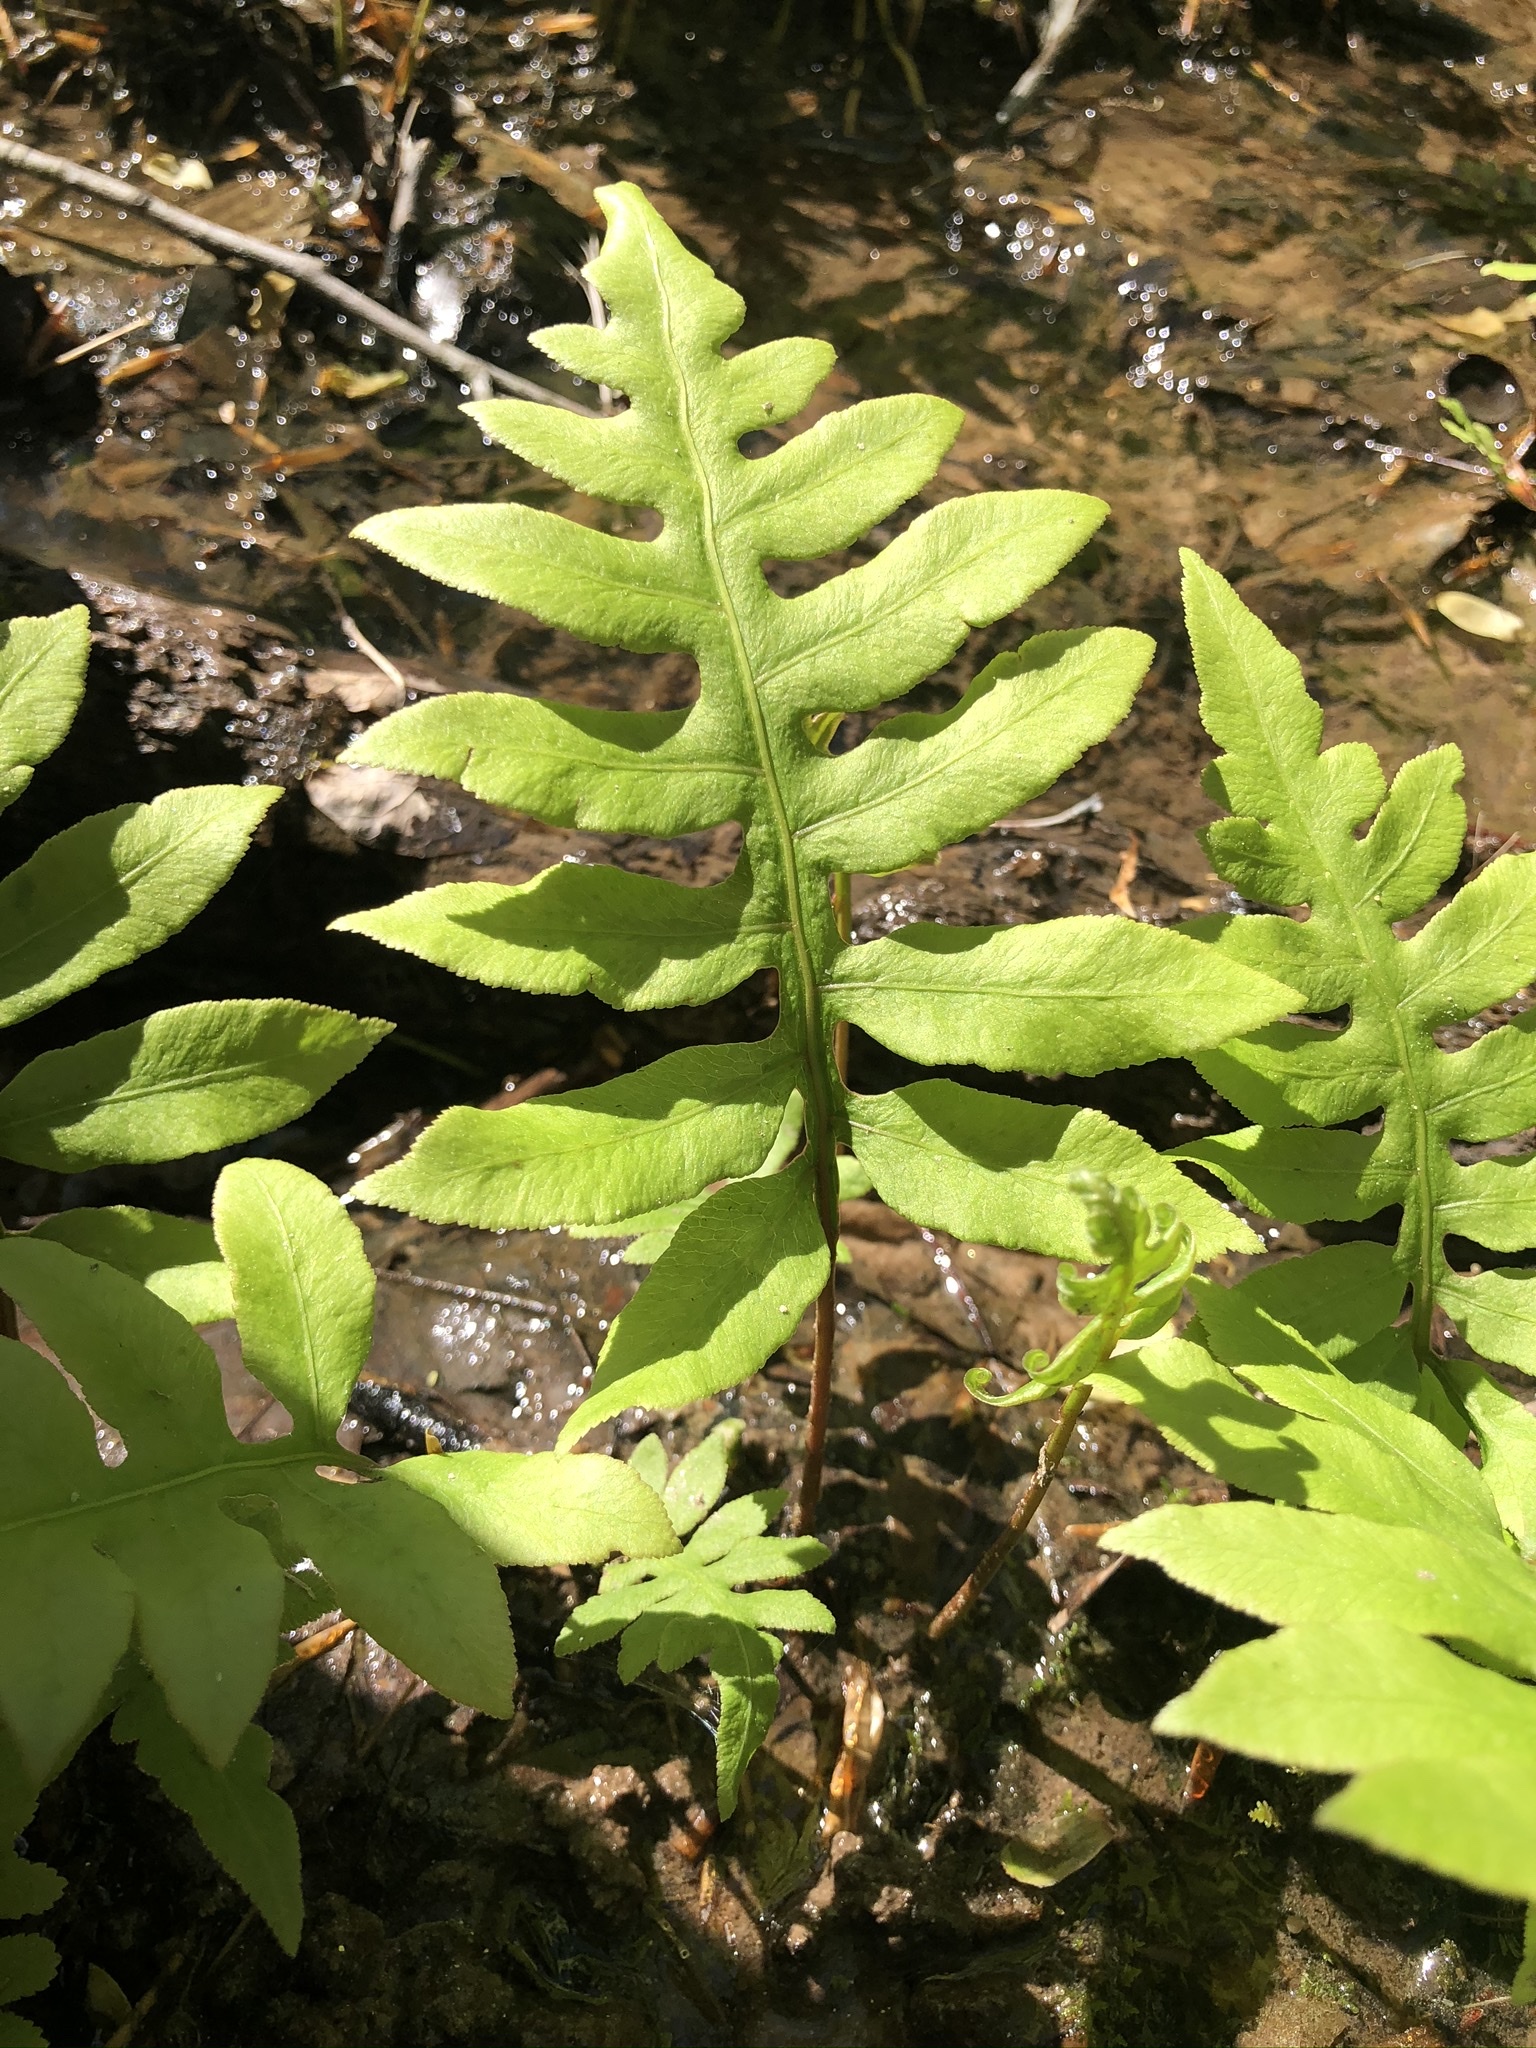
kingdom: Plantae
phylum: Tracheophyta
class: Polypodiopsida
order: Polypodiales
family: Blechnaceae
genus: Lorinseria
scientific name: Lorinseria areolata
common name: Dwarf chain fern
